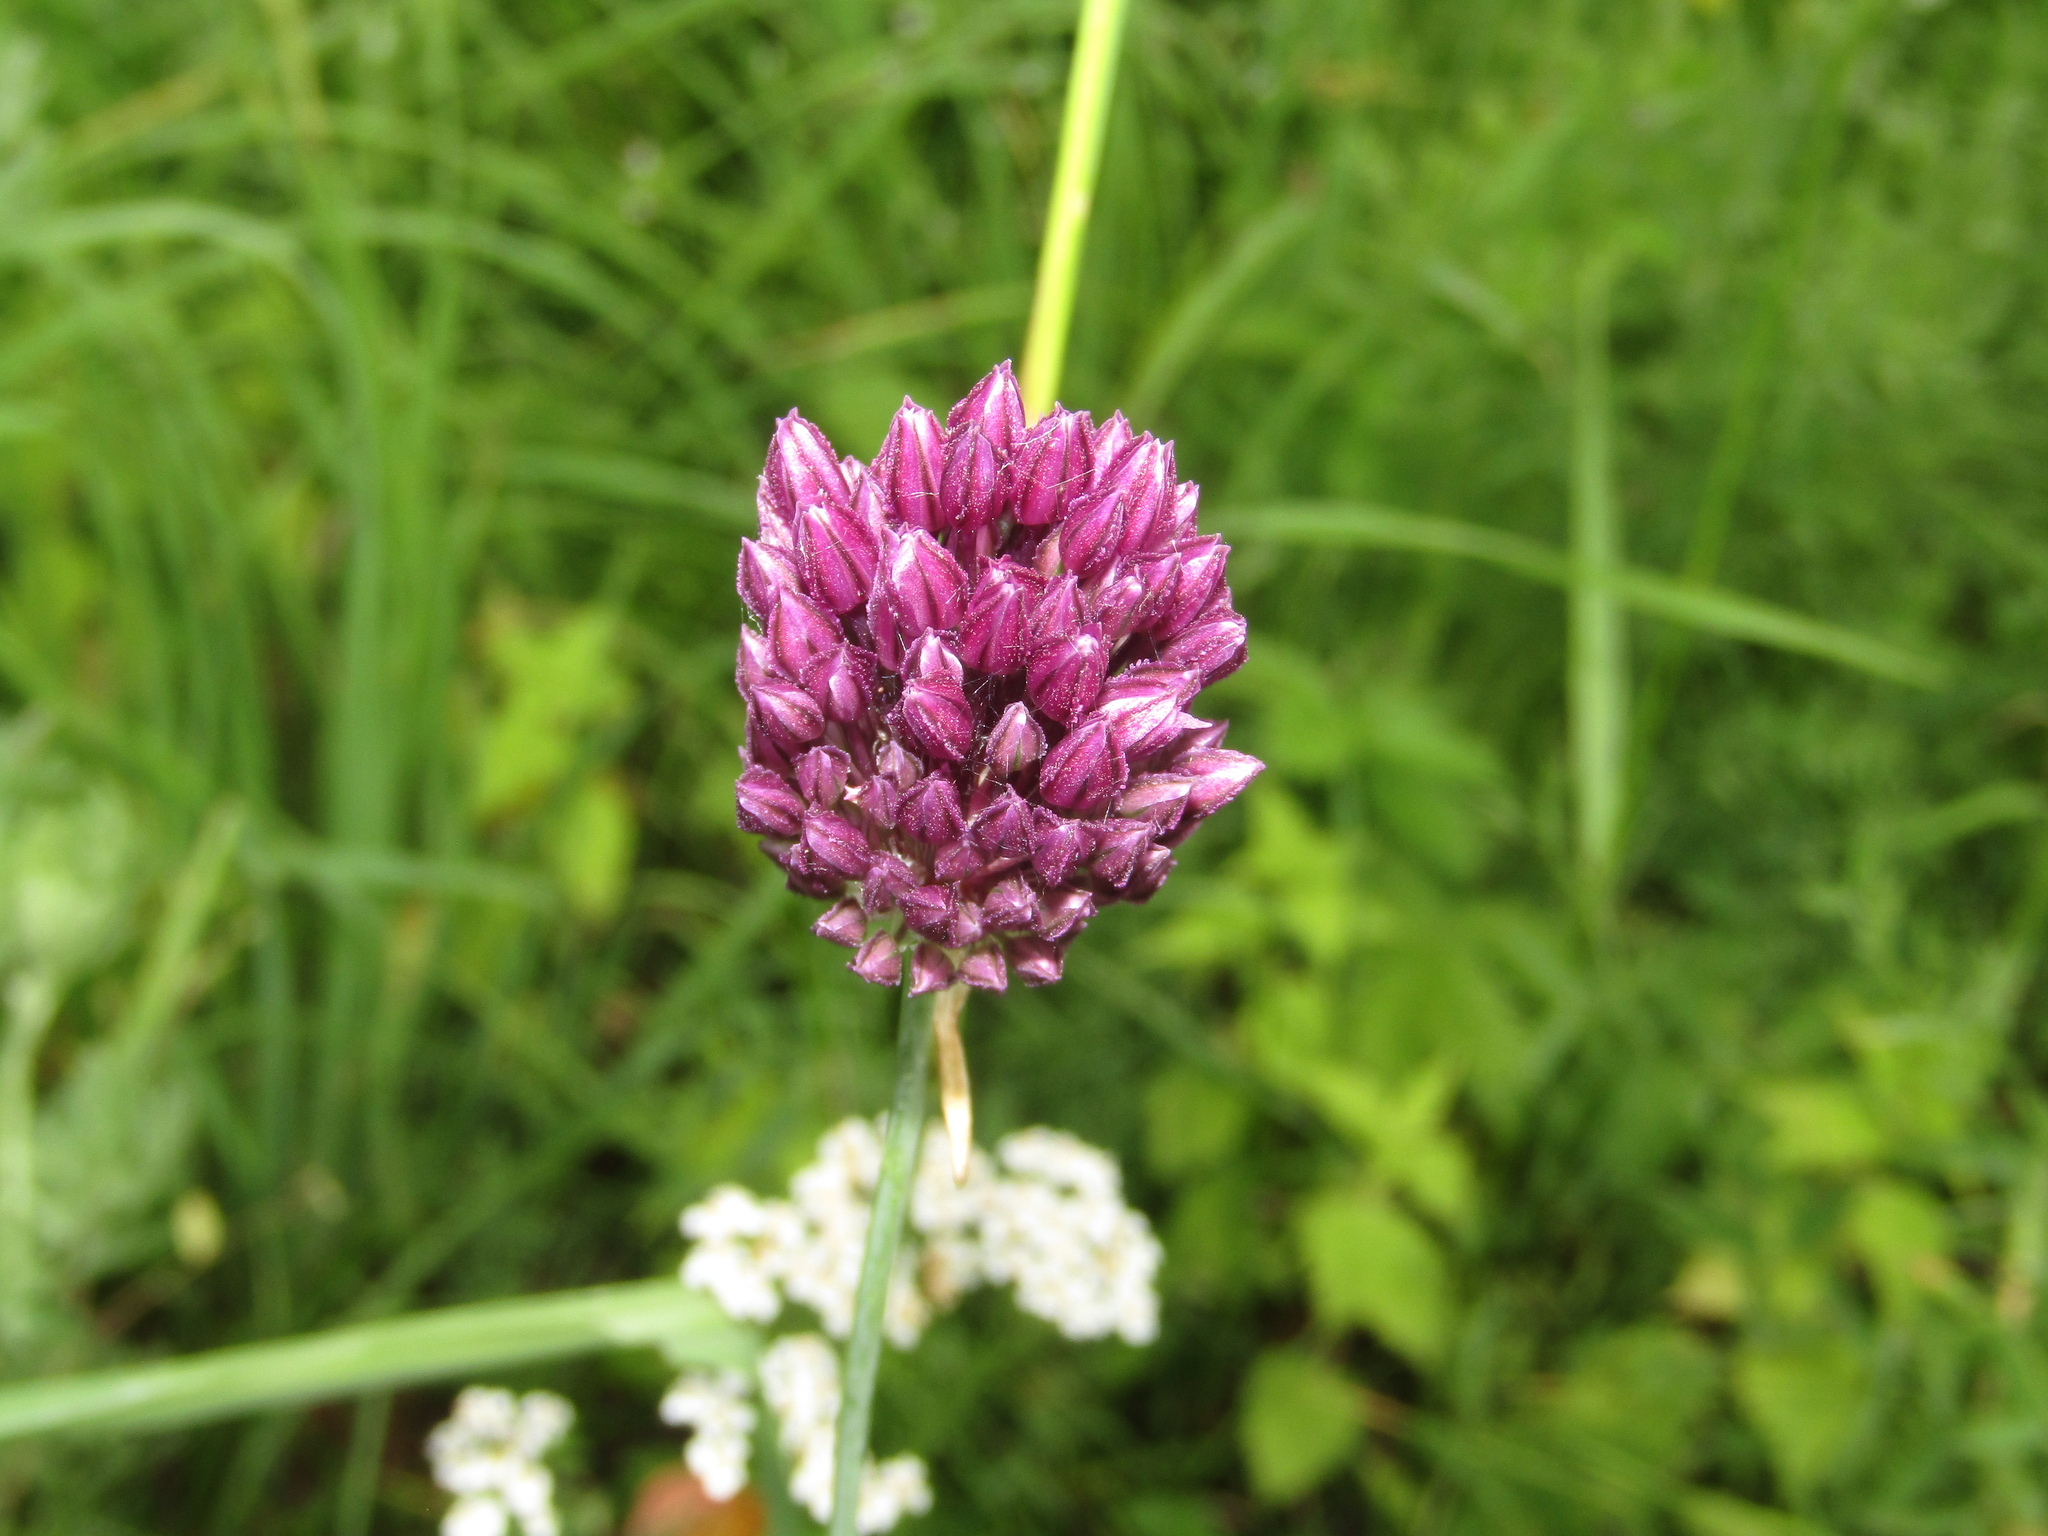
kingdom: Plantae
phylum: Tracheophyta
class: Liliopsida
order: Asparagales
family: Amaryllidaceae
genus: Allium
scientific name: Allium rotundum
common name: Sand leek
